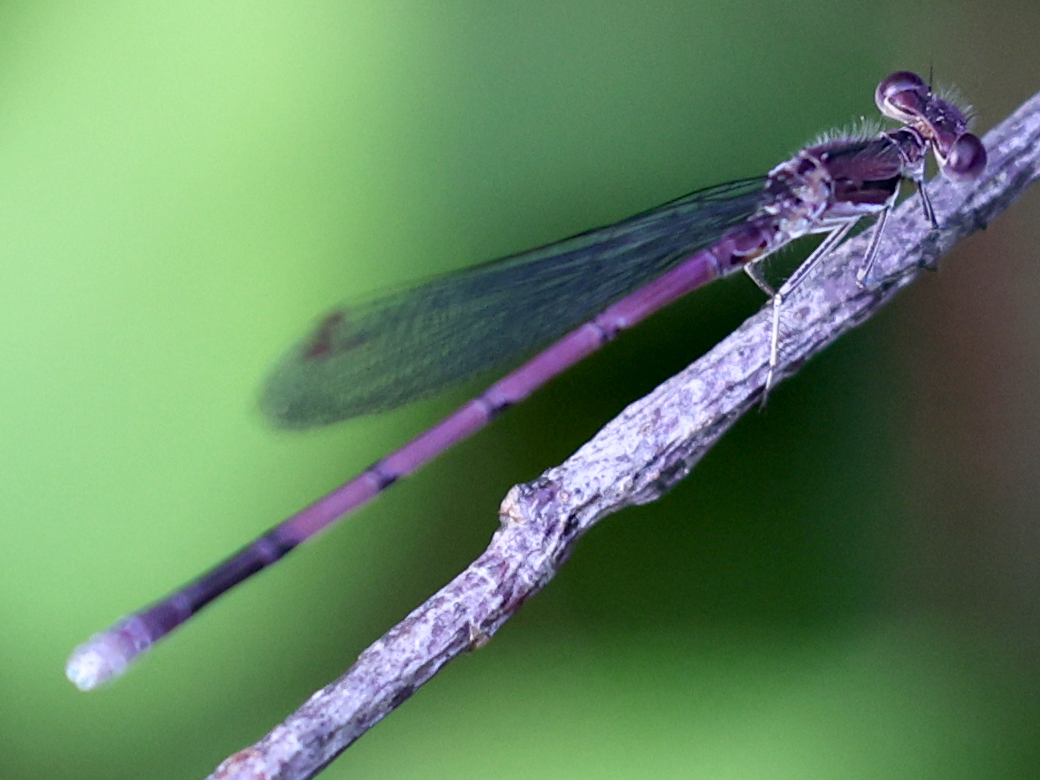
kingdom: Animalia
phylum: Arthropoda
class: Insecta
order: Odonata
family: Coenagrionidae
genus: Argia
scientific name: Argia fumipennis
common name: Variable dancer
